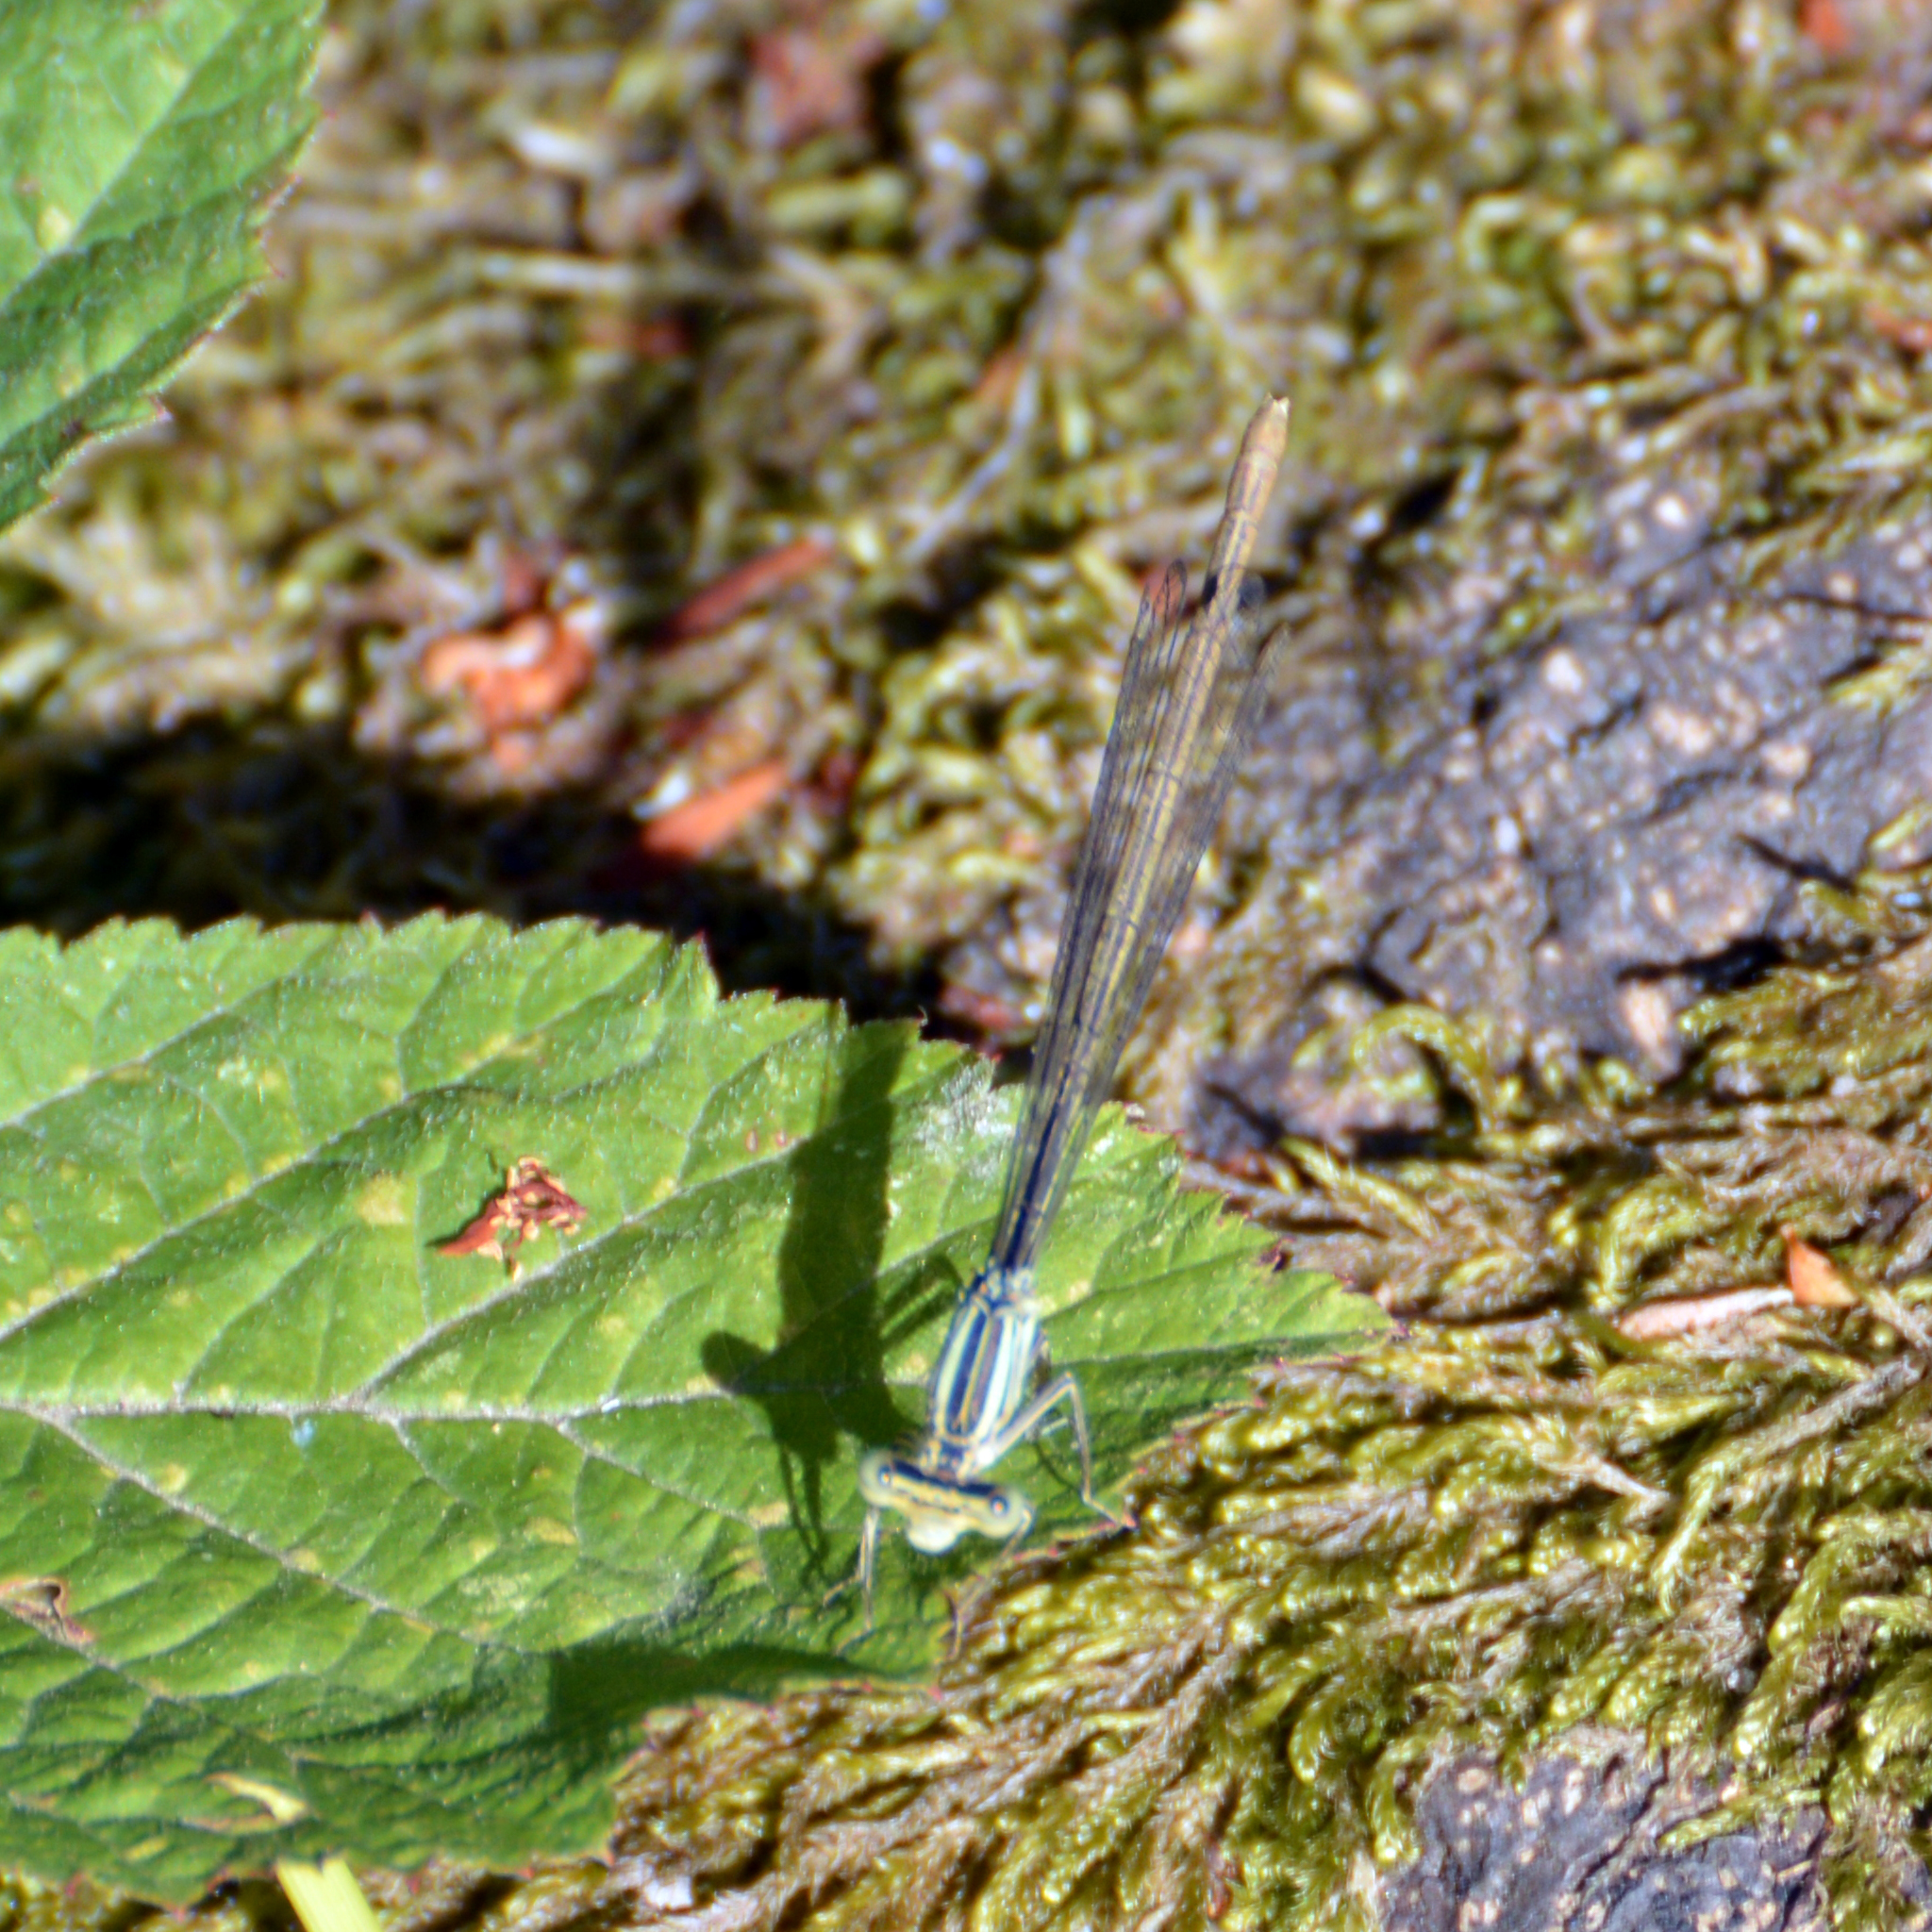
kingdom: Animalia
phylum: Arthropoda
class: Insecta
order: Odonata
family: Platycnemididae
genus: Platycnemis
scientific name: Platycnemis pennipes
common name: White-legged damselfly
